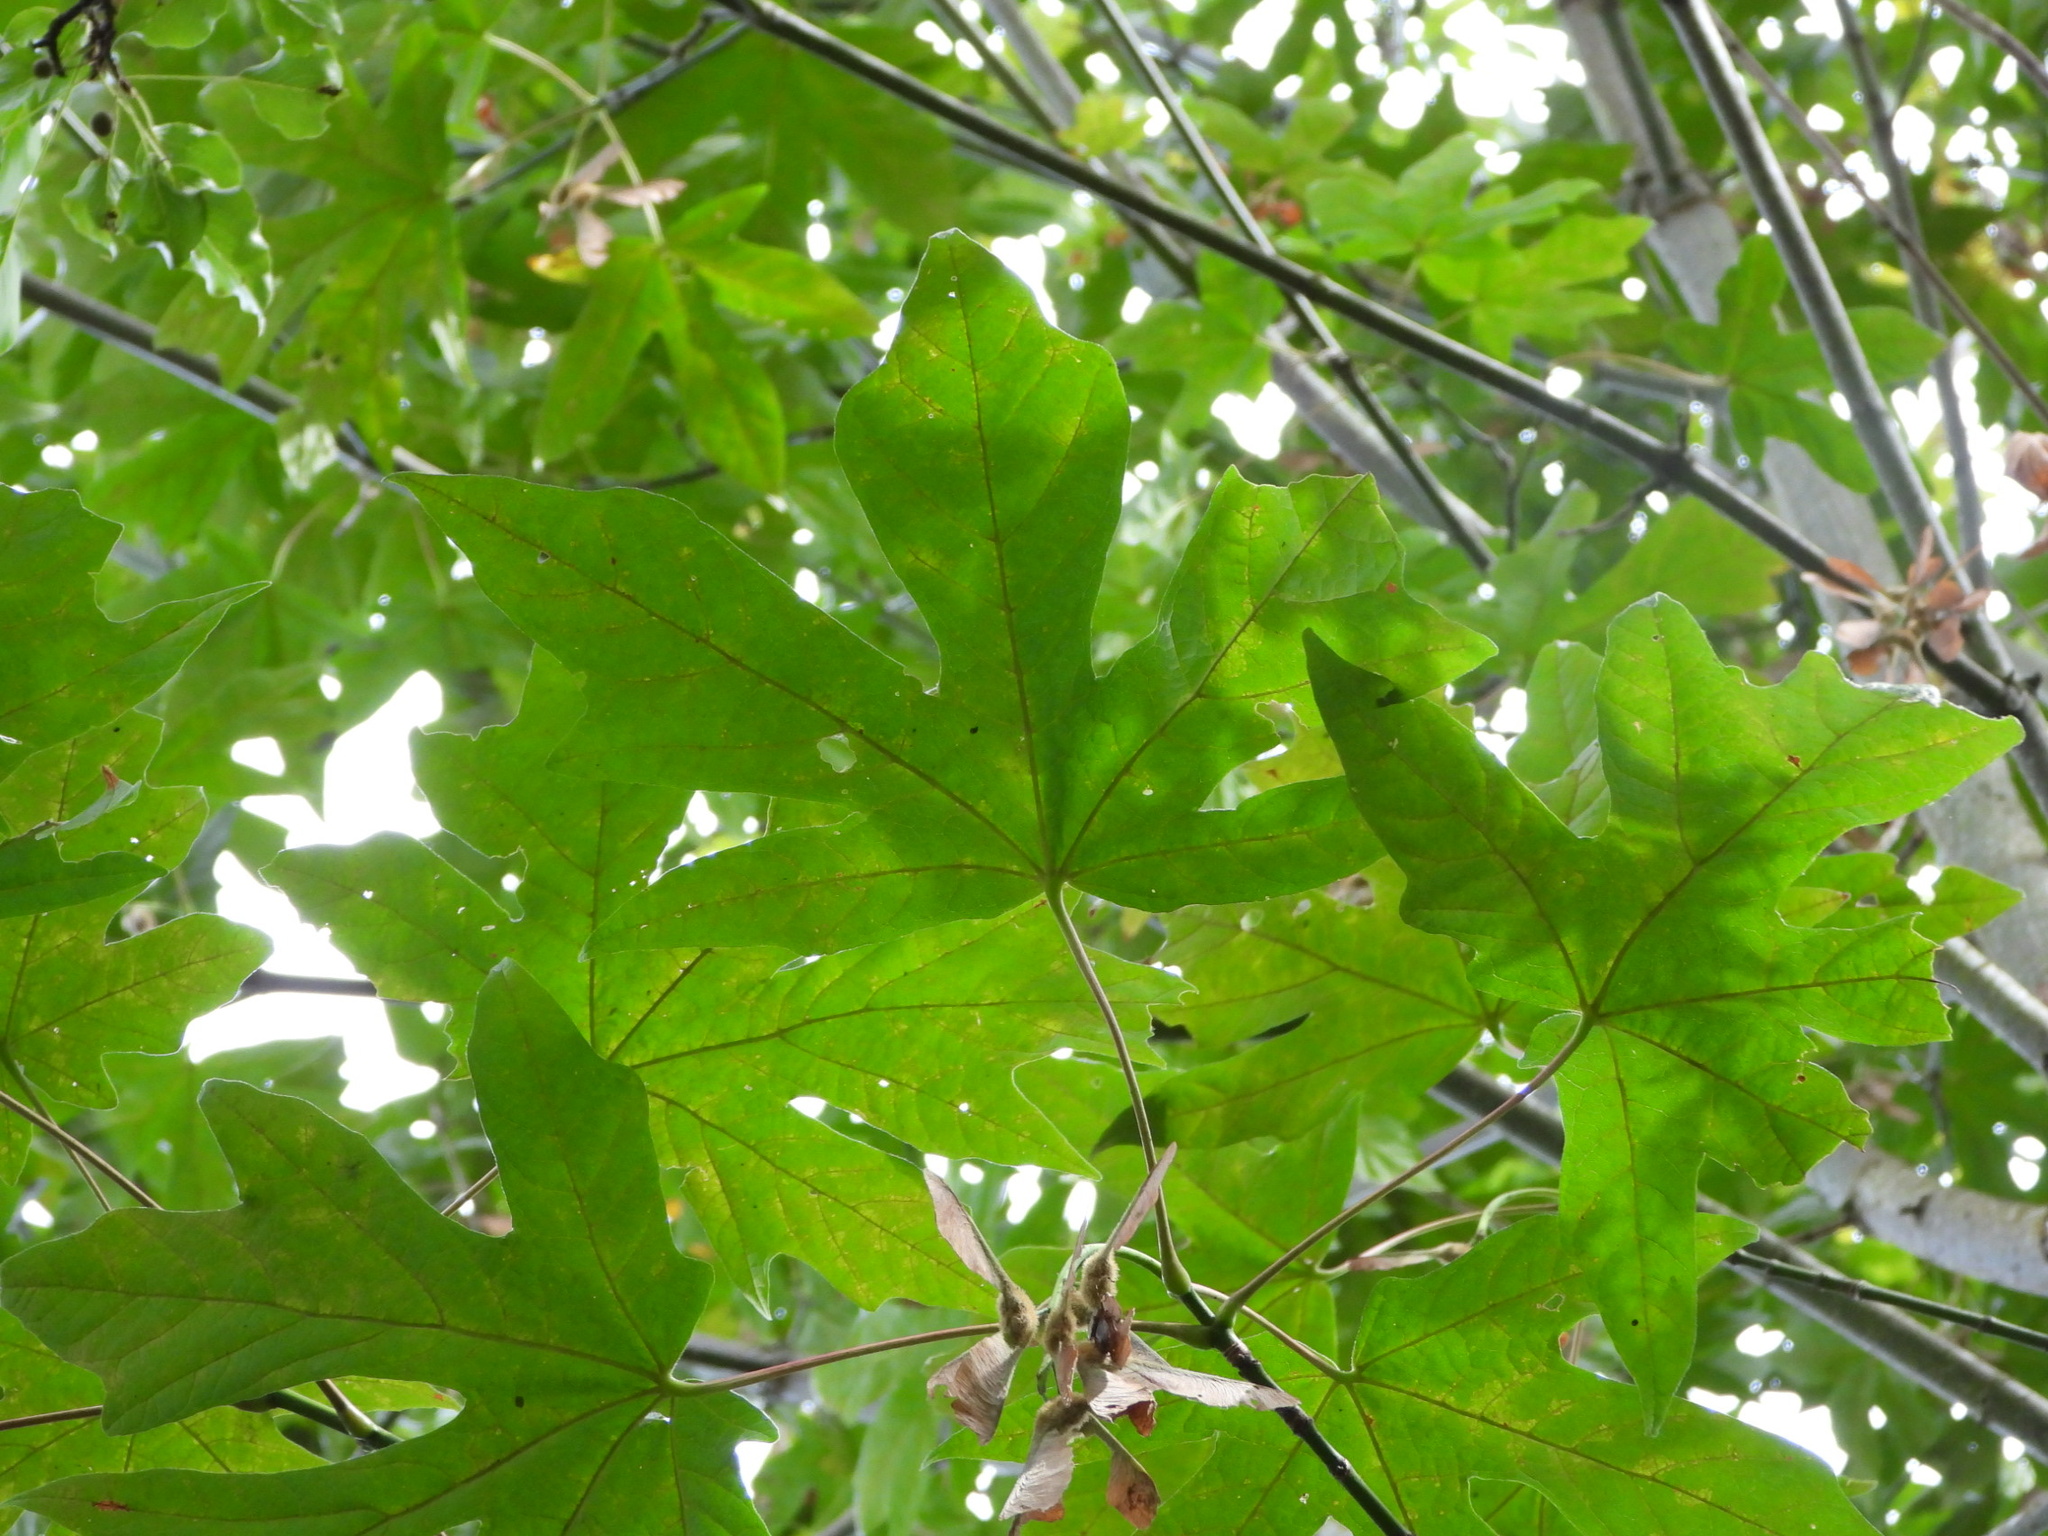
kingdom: Plantae
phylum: Tracheophyta
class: Magnoliopsida
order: Sapindales
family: Sapindaceae
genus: Acer
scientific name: Acer macrophyllum
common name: Oregon maple
